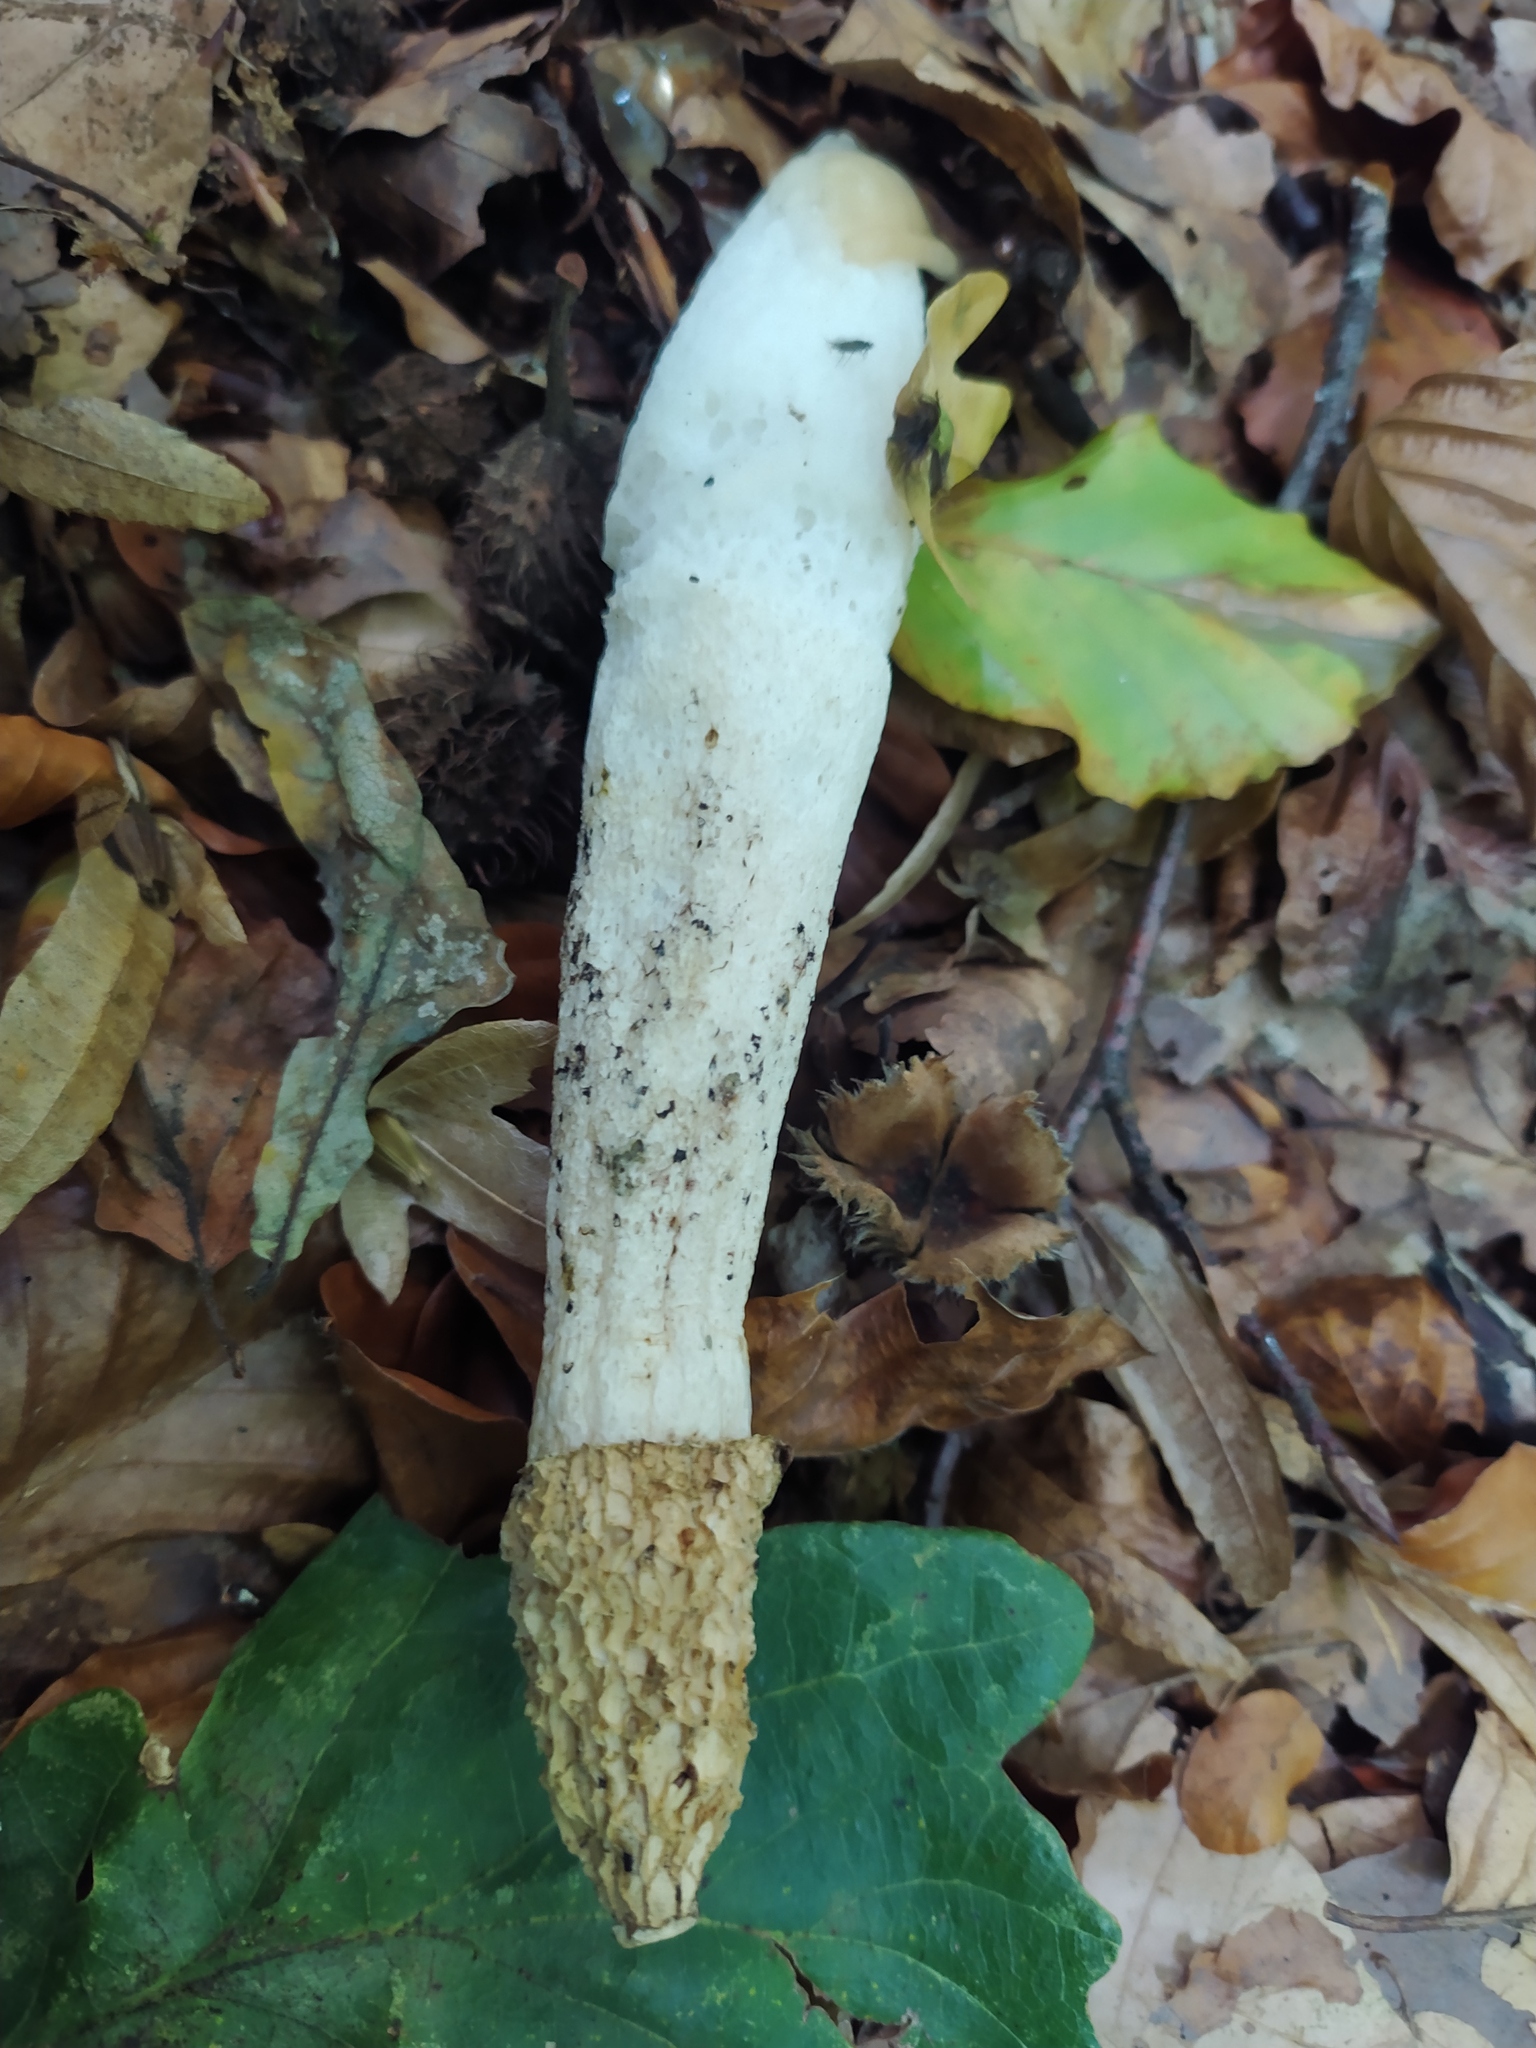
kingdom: Fungi
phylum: Basidiomycota
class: Agaricomycetes
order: Phallales
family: Phallaceae
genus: Phallus
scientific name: Phallus impudicus
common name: Common stinkhorn
